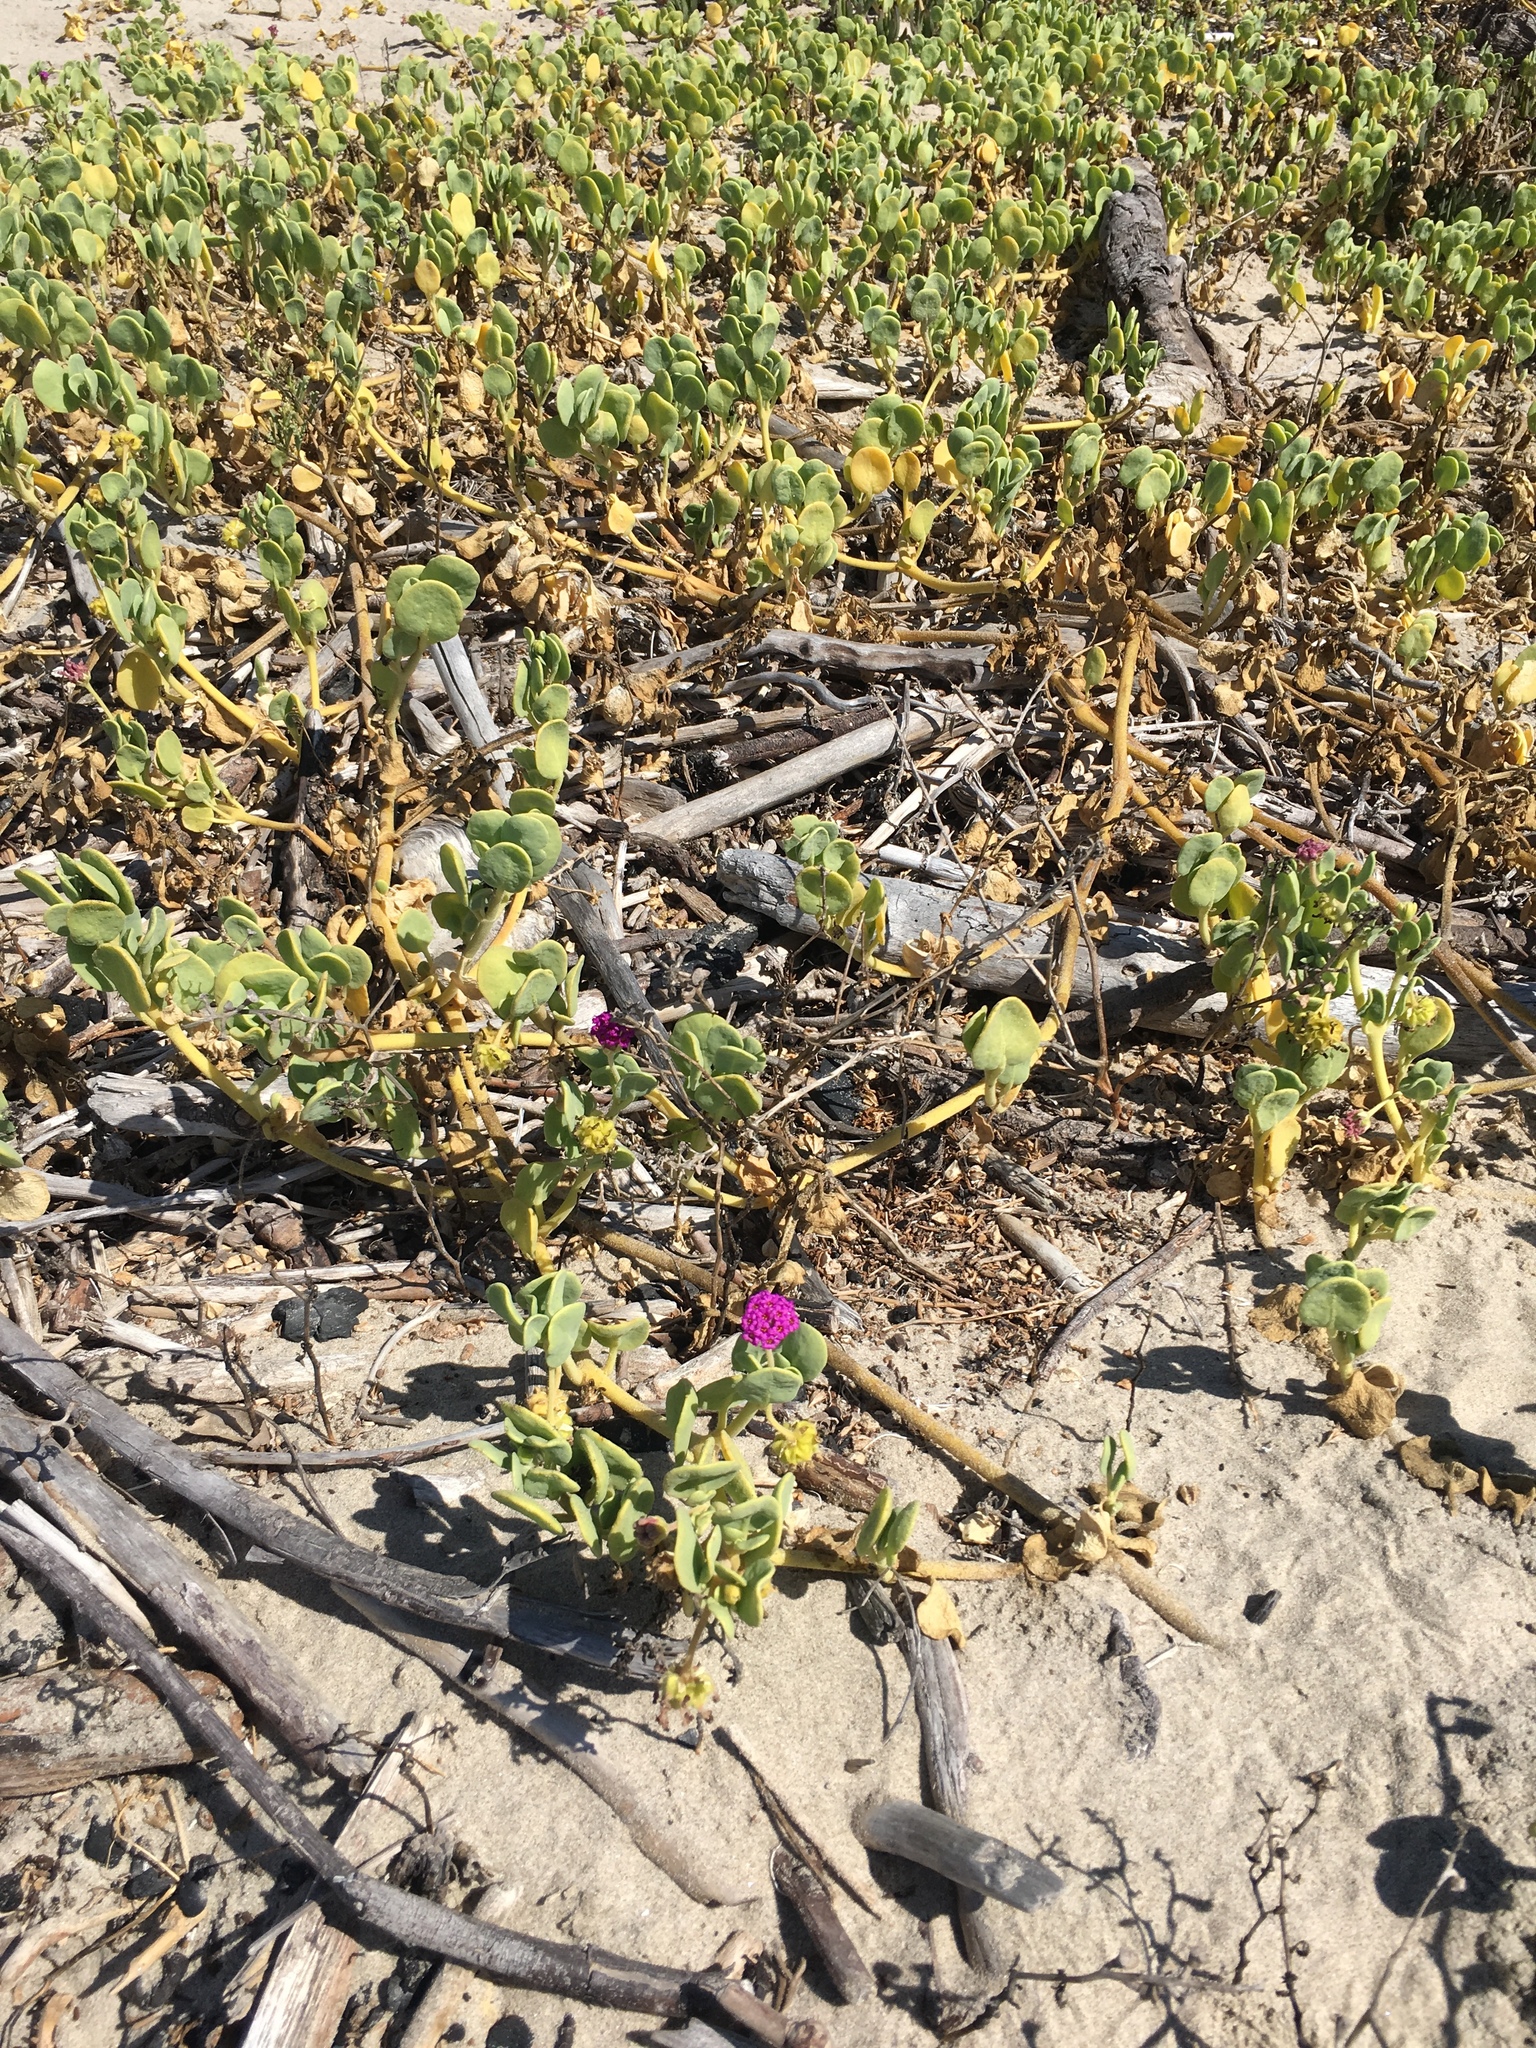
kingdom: Plantae
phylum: Tracheophyta
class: Magnoliopsida
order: Caryophyllales
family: Nyctaginaceae
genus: Abronia
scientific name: Abronia maritima
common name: Red sand-verbena
